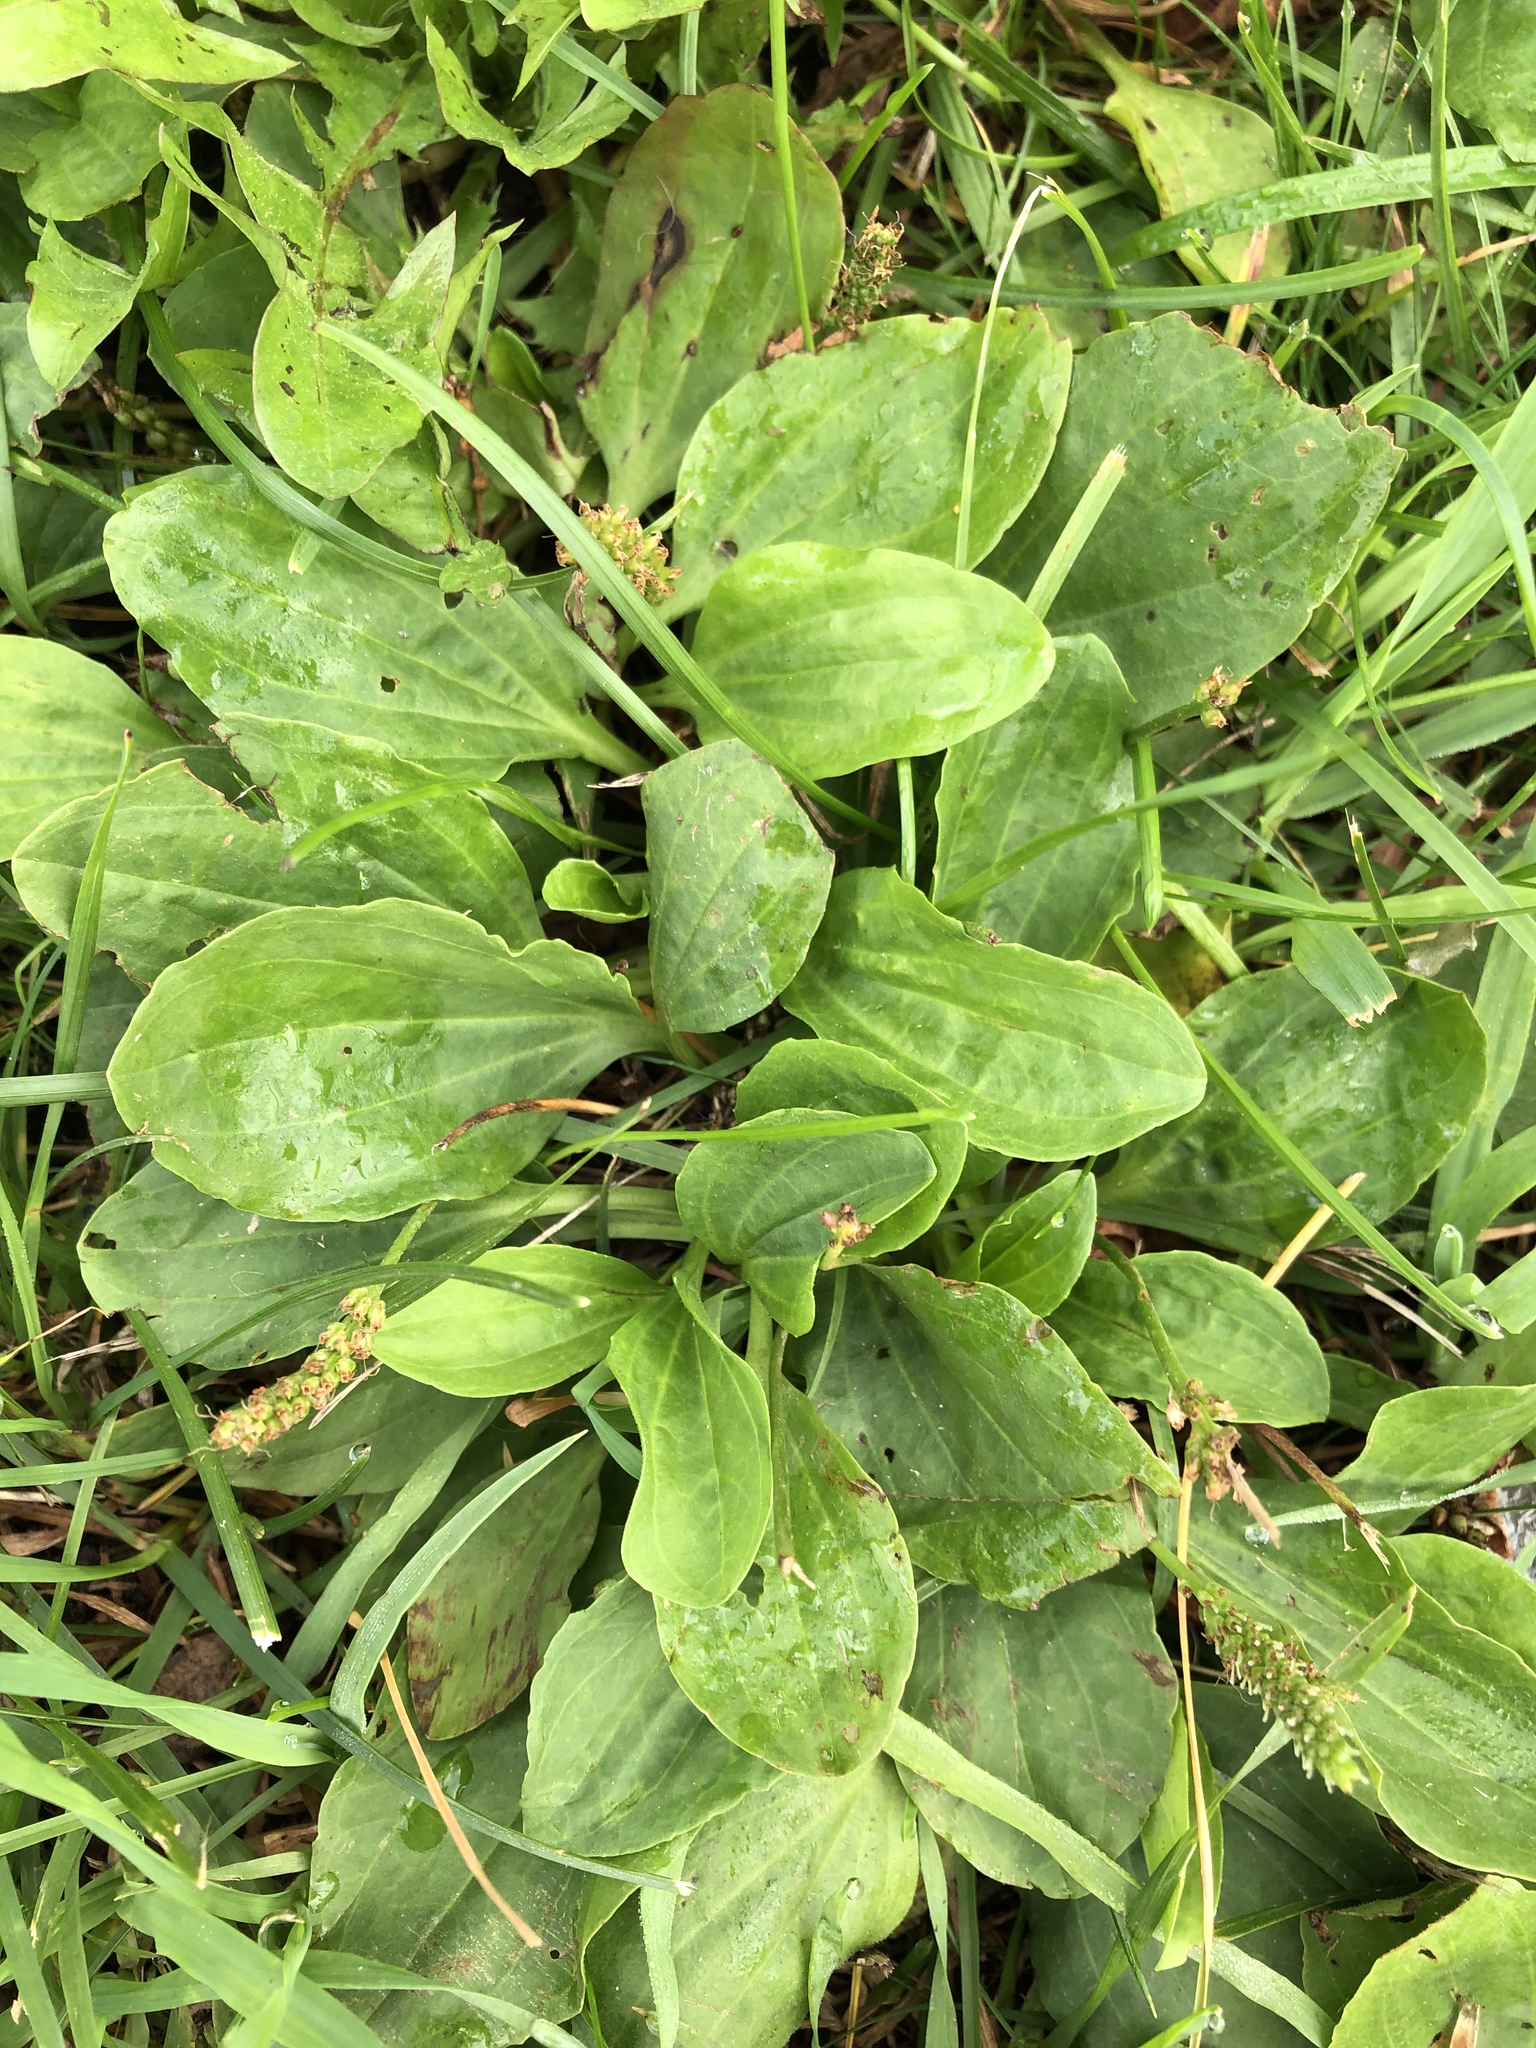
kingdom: Plantae
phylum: Tracheophyta
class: Magnoliopsida
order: Lamiales
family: Plantaginaceae
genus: Plantago
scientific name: Plantago major
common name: Common plantain
